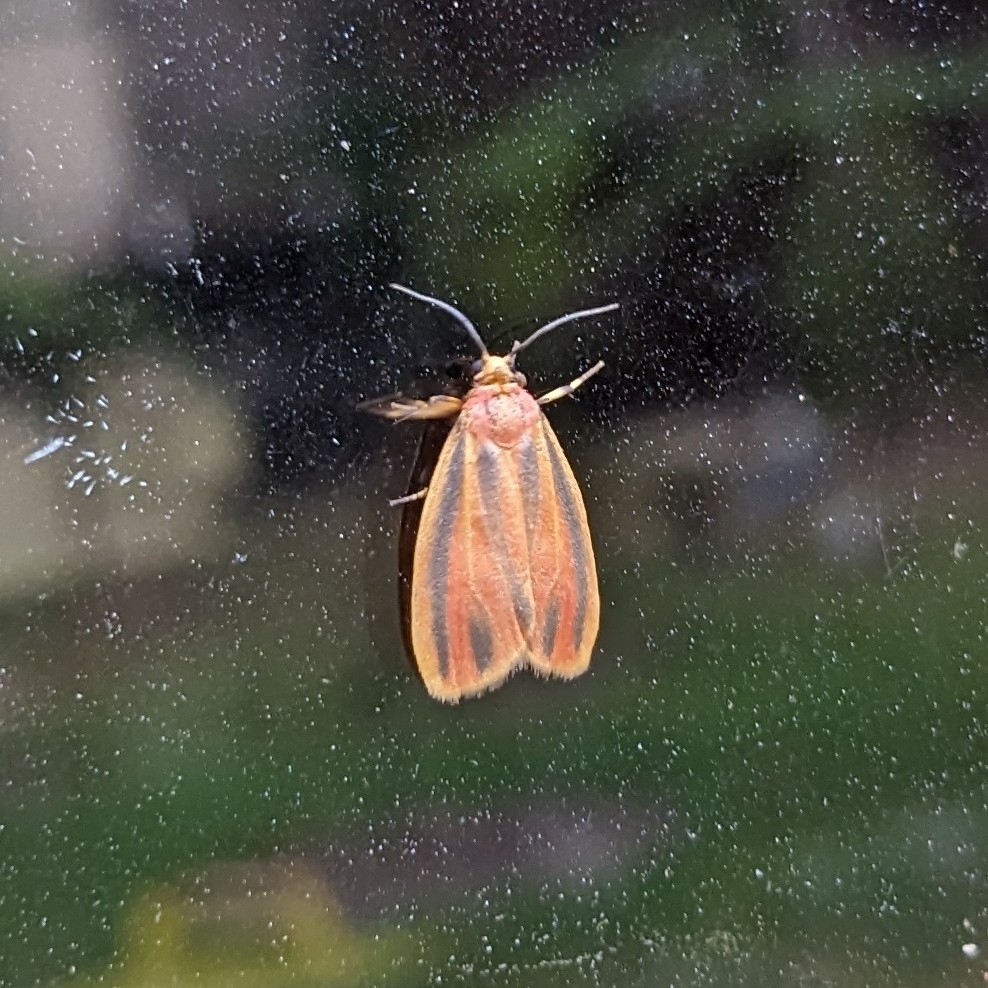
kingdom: Animalia
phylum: Arthropoda
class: Insecta
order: Lepidoptera
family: Erebidae
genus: Hypoprepia
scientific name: Hypoprepia fucosa
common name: Painted lichen moth
